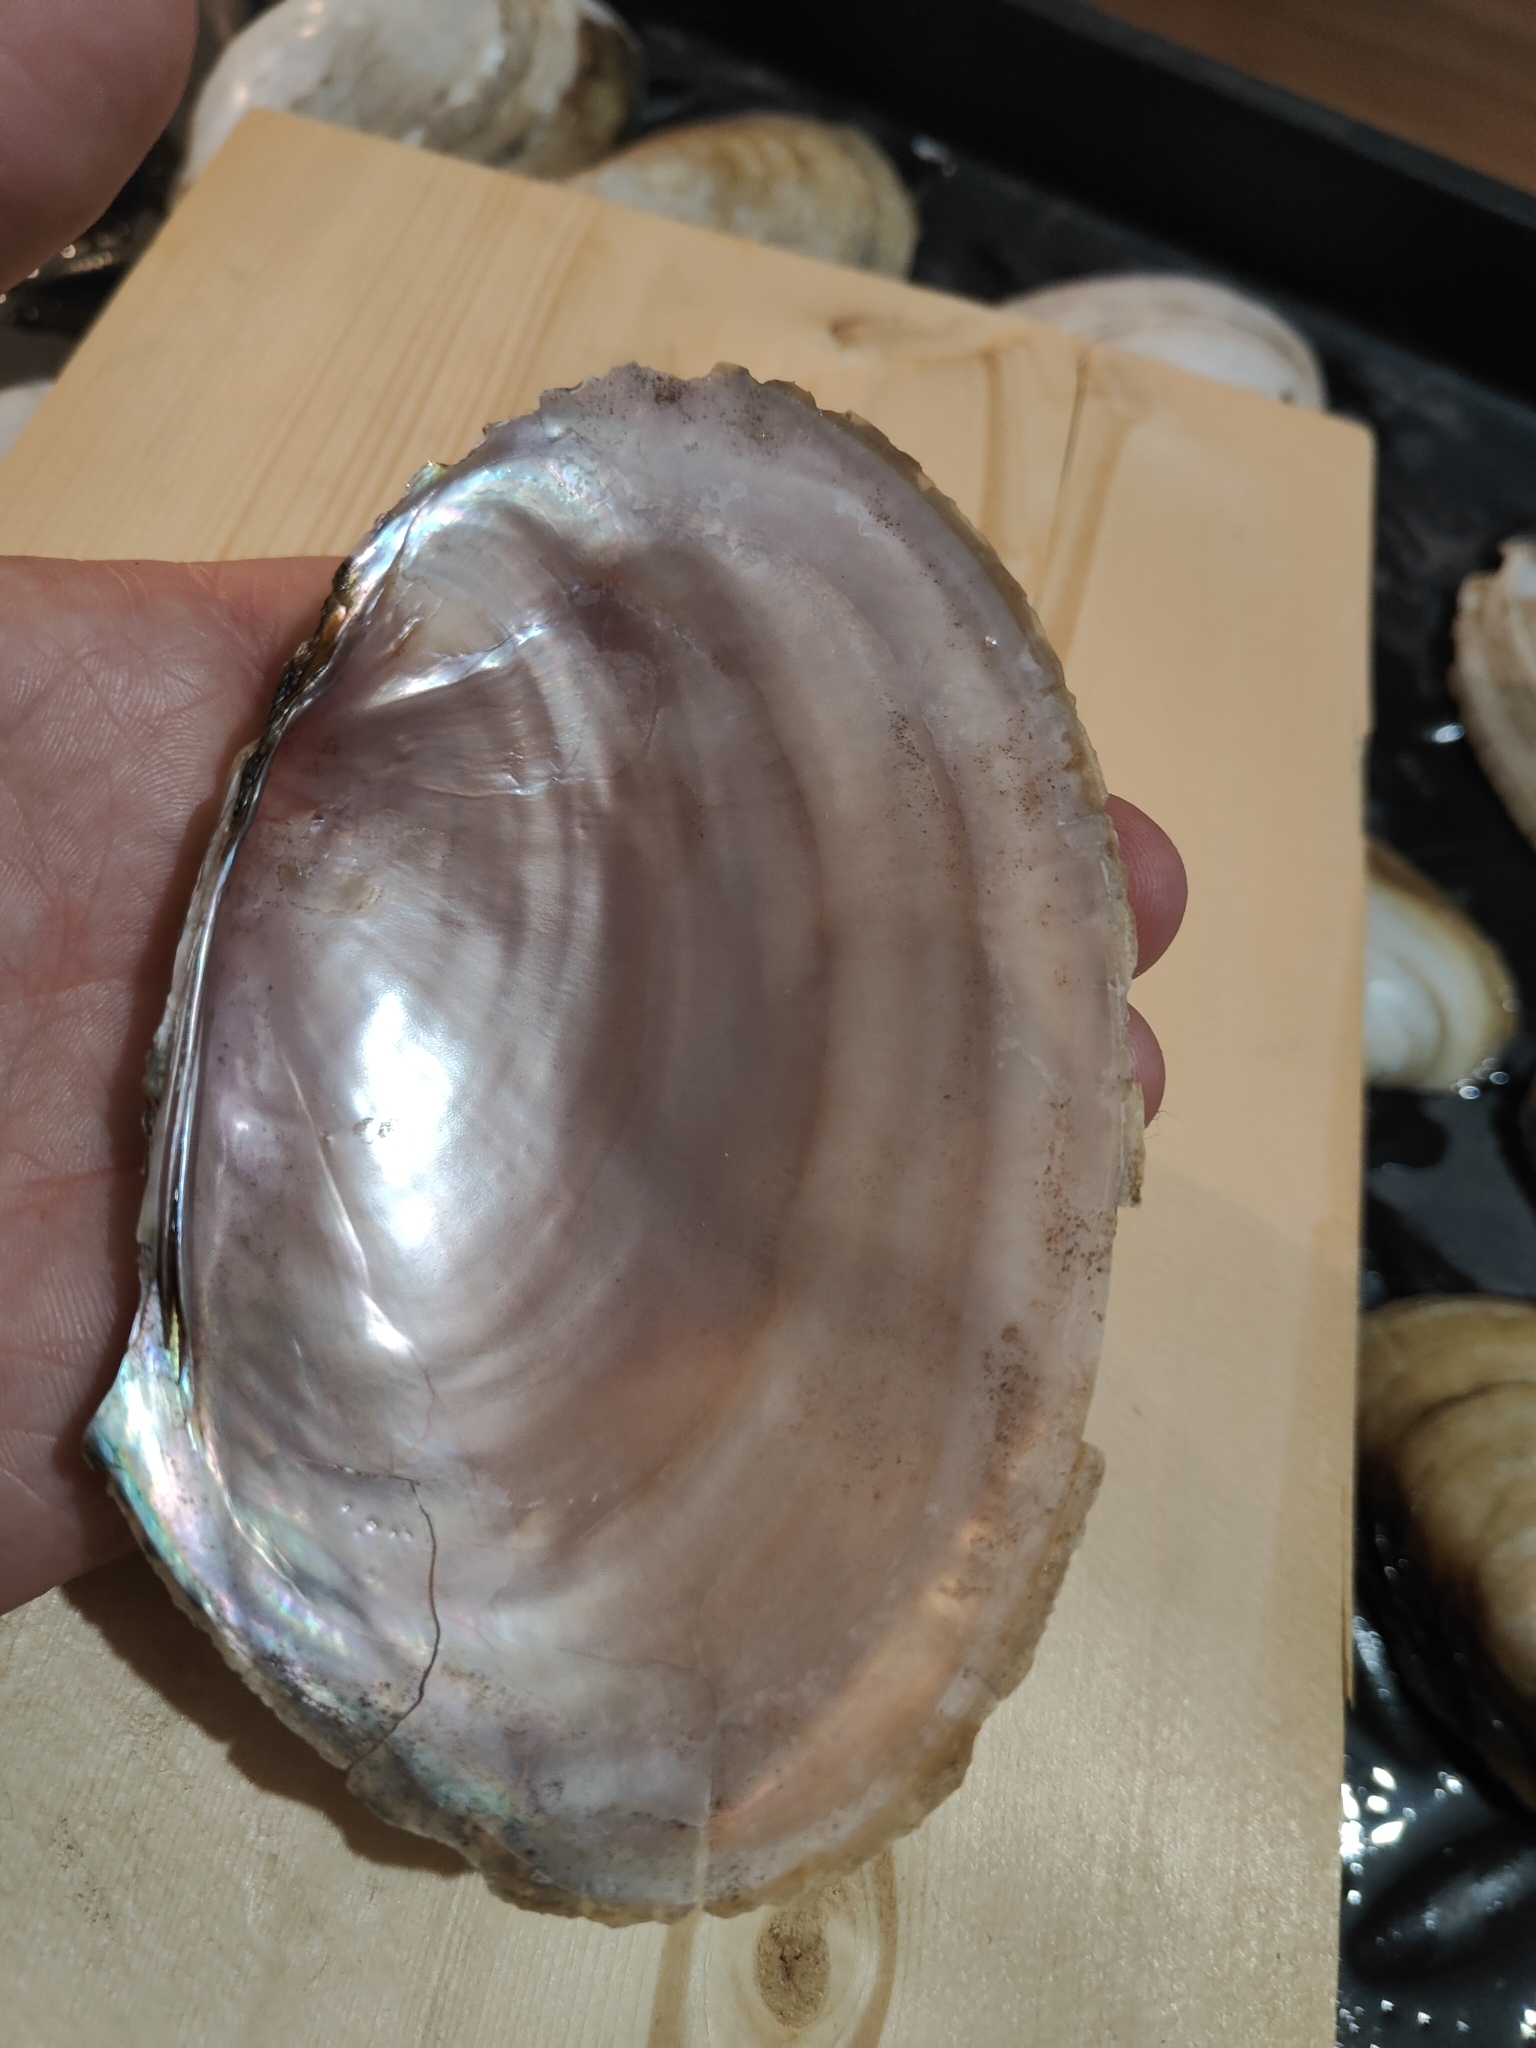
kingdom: Animalia
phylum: Mollusca
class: Bivalvia
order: Unionida
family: Unionidae
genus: Potamilus
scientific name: Potamilus ohiensis
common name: Pink papershell
